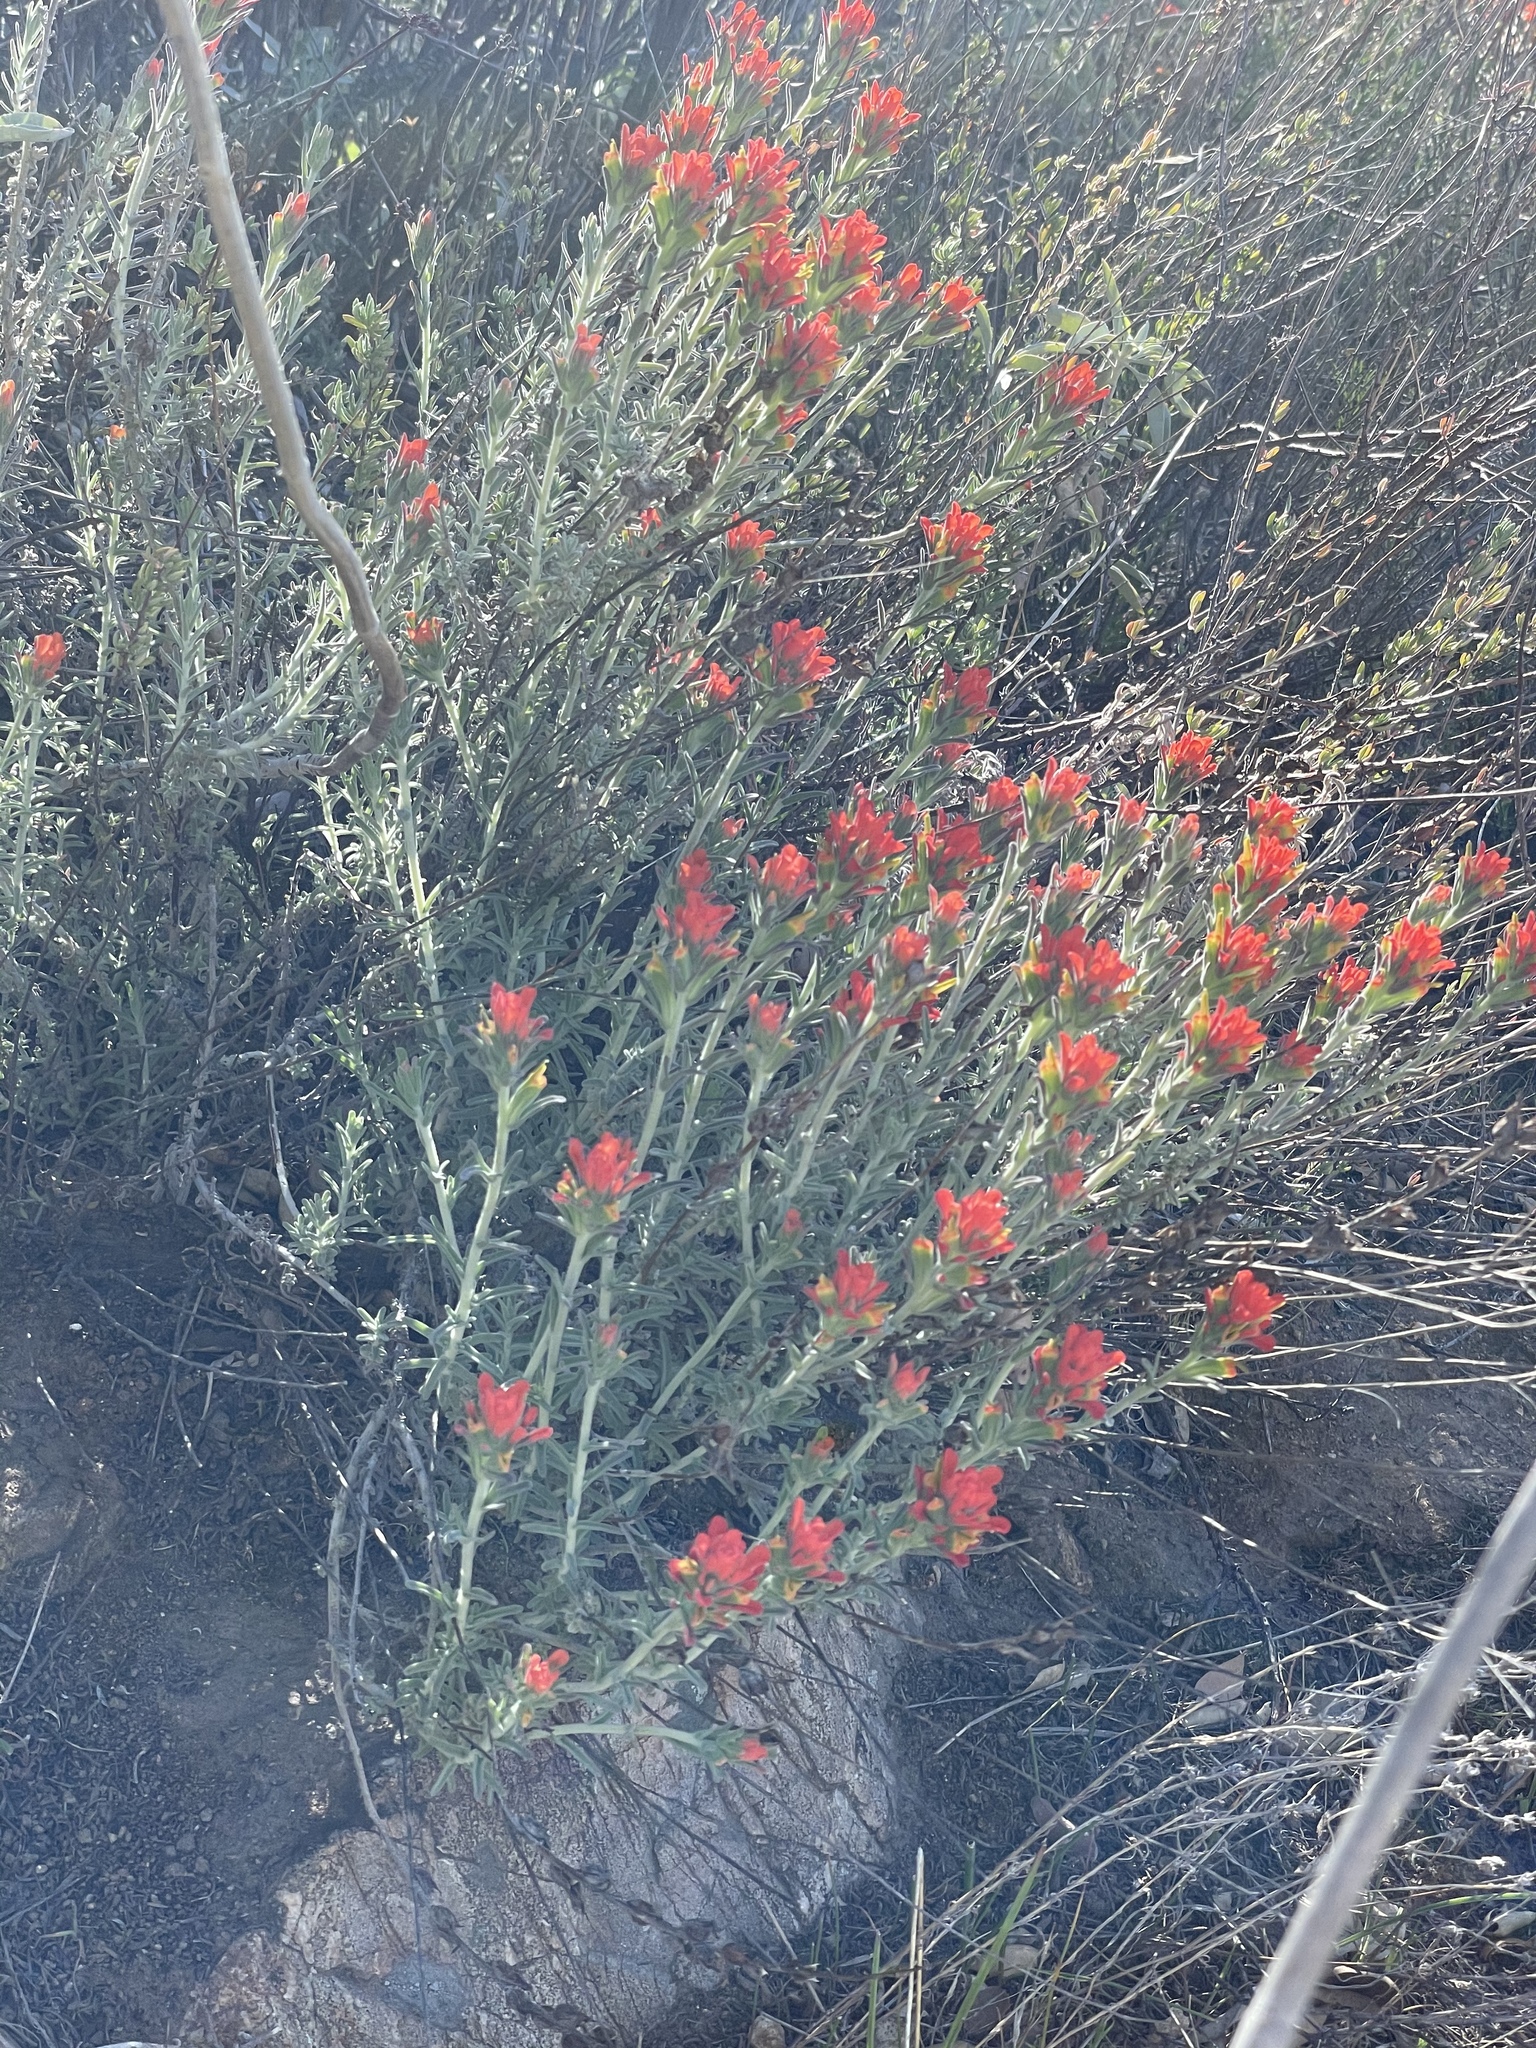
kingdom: Plantae
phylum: Tracheophyta
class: Magnoliopsida
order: Lamiales
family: Orobanchaceae
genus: Castilleja
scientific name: Castilleja foliolosa
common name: Woolly indian paintbrush
